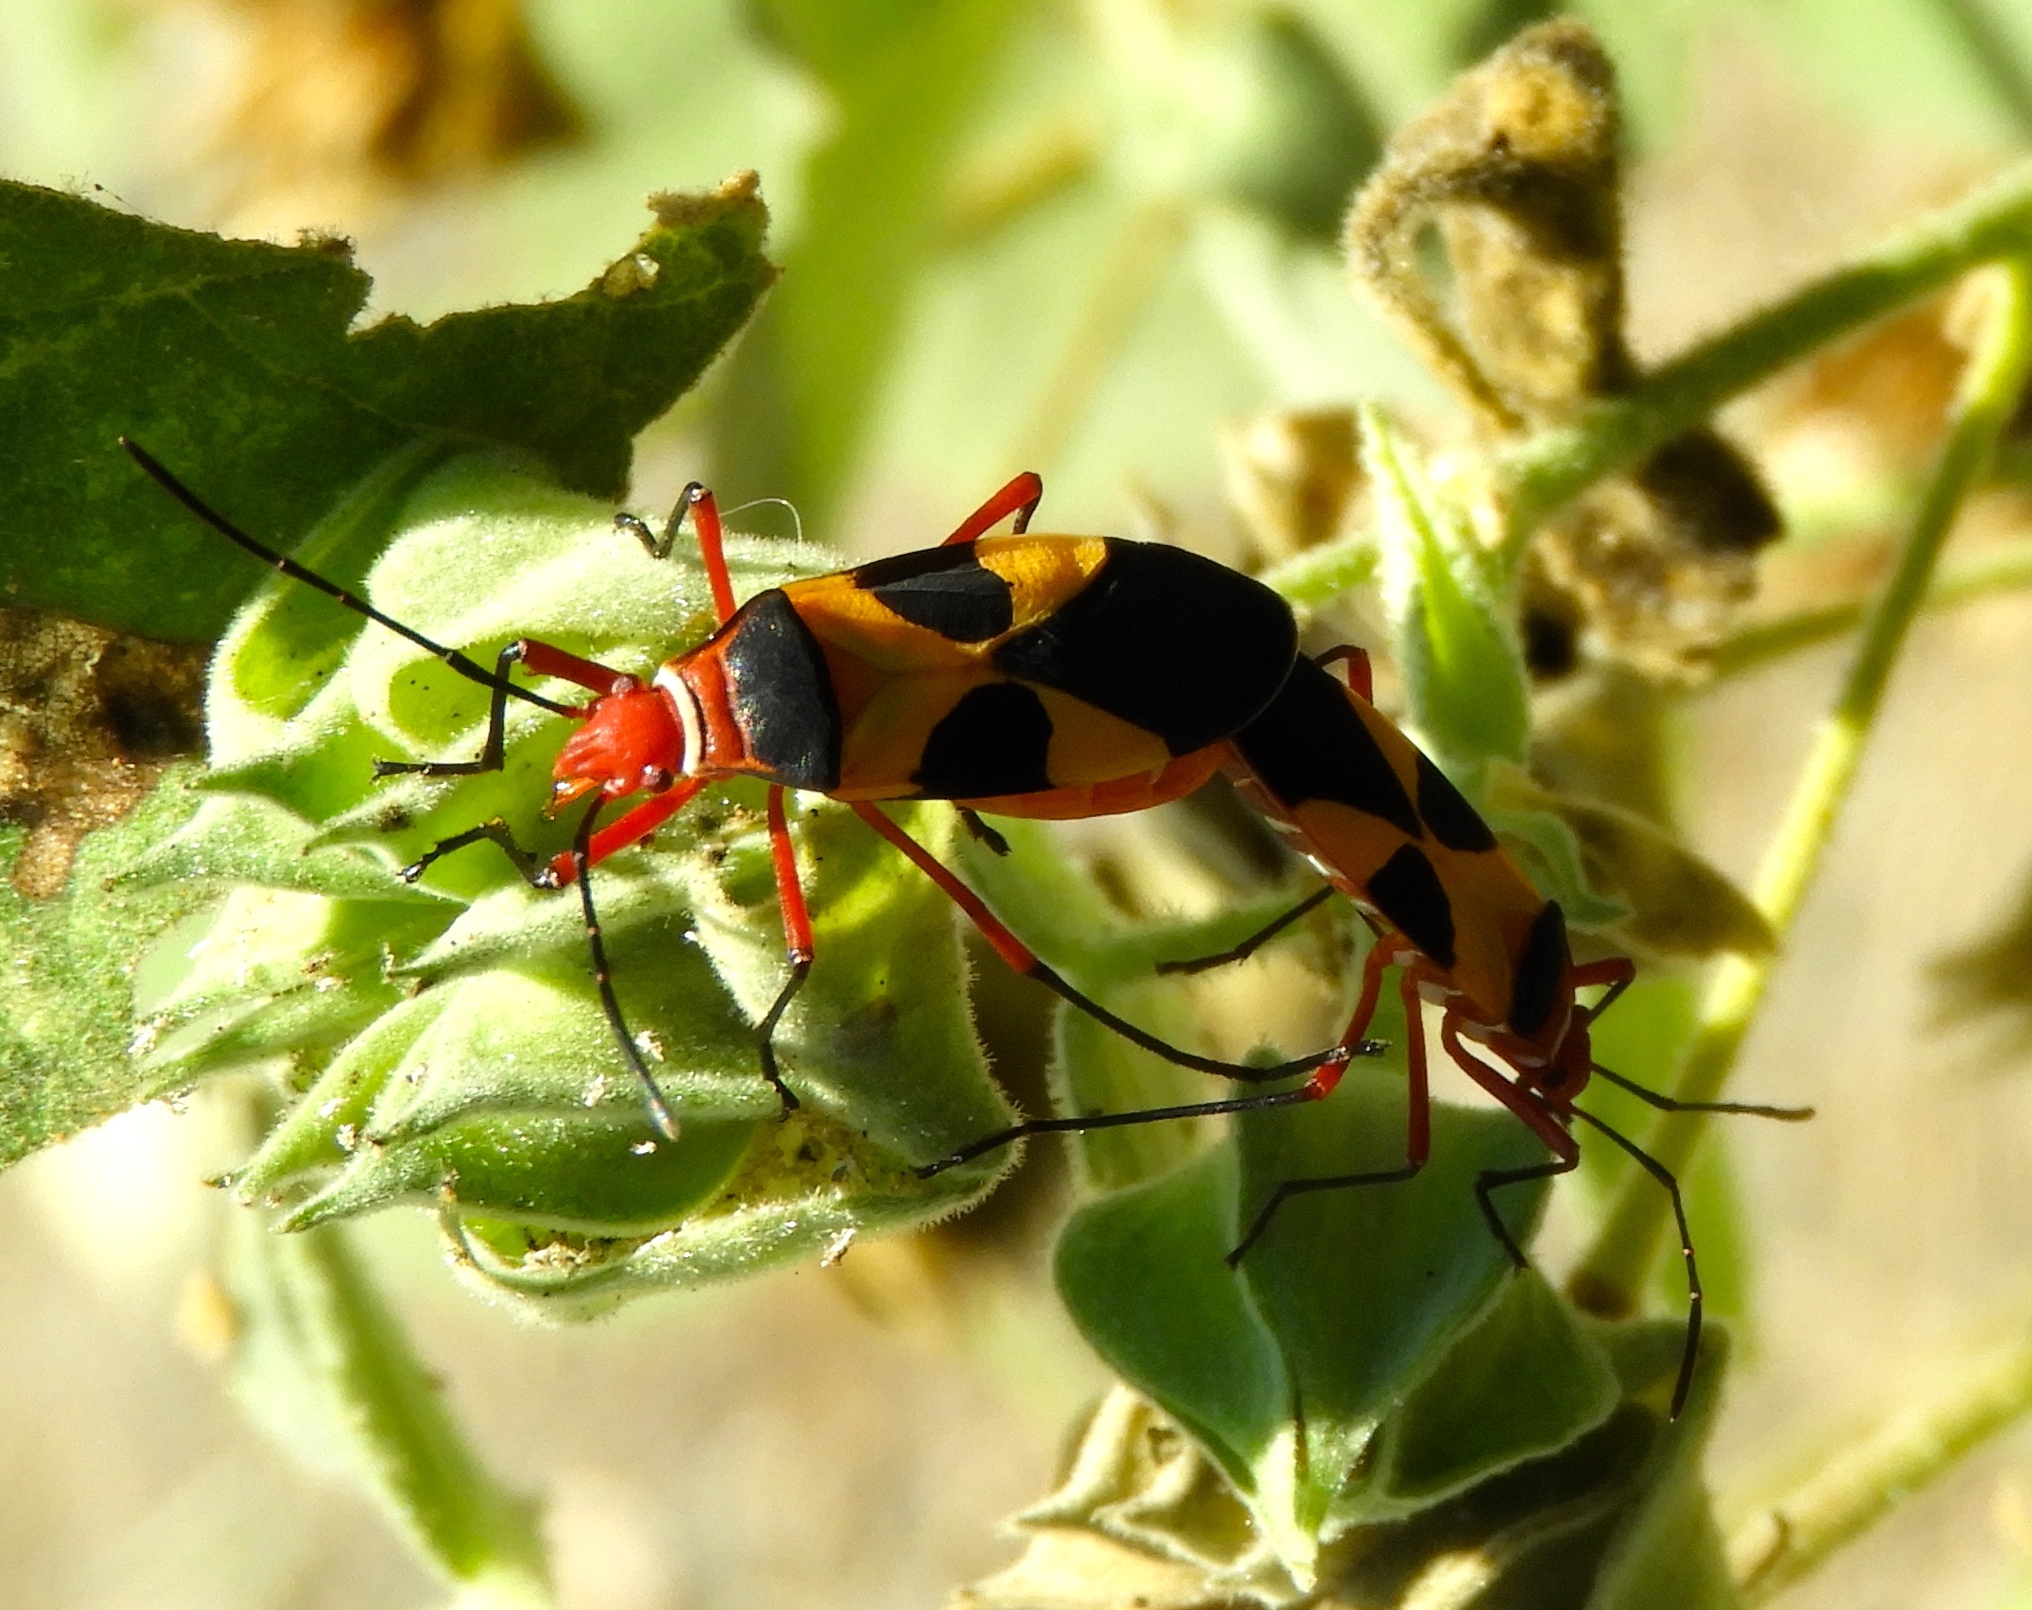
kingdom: Animalia
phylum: Arthropoda
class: Insecta
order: Hemiptera
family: Pyrrhocoridae
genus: Dysdercus
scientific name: Dysdercus concinnus
